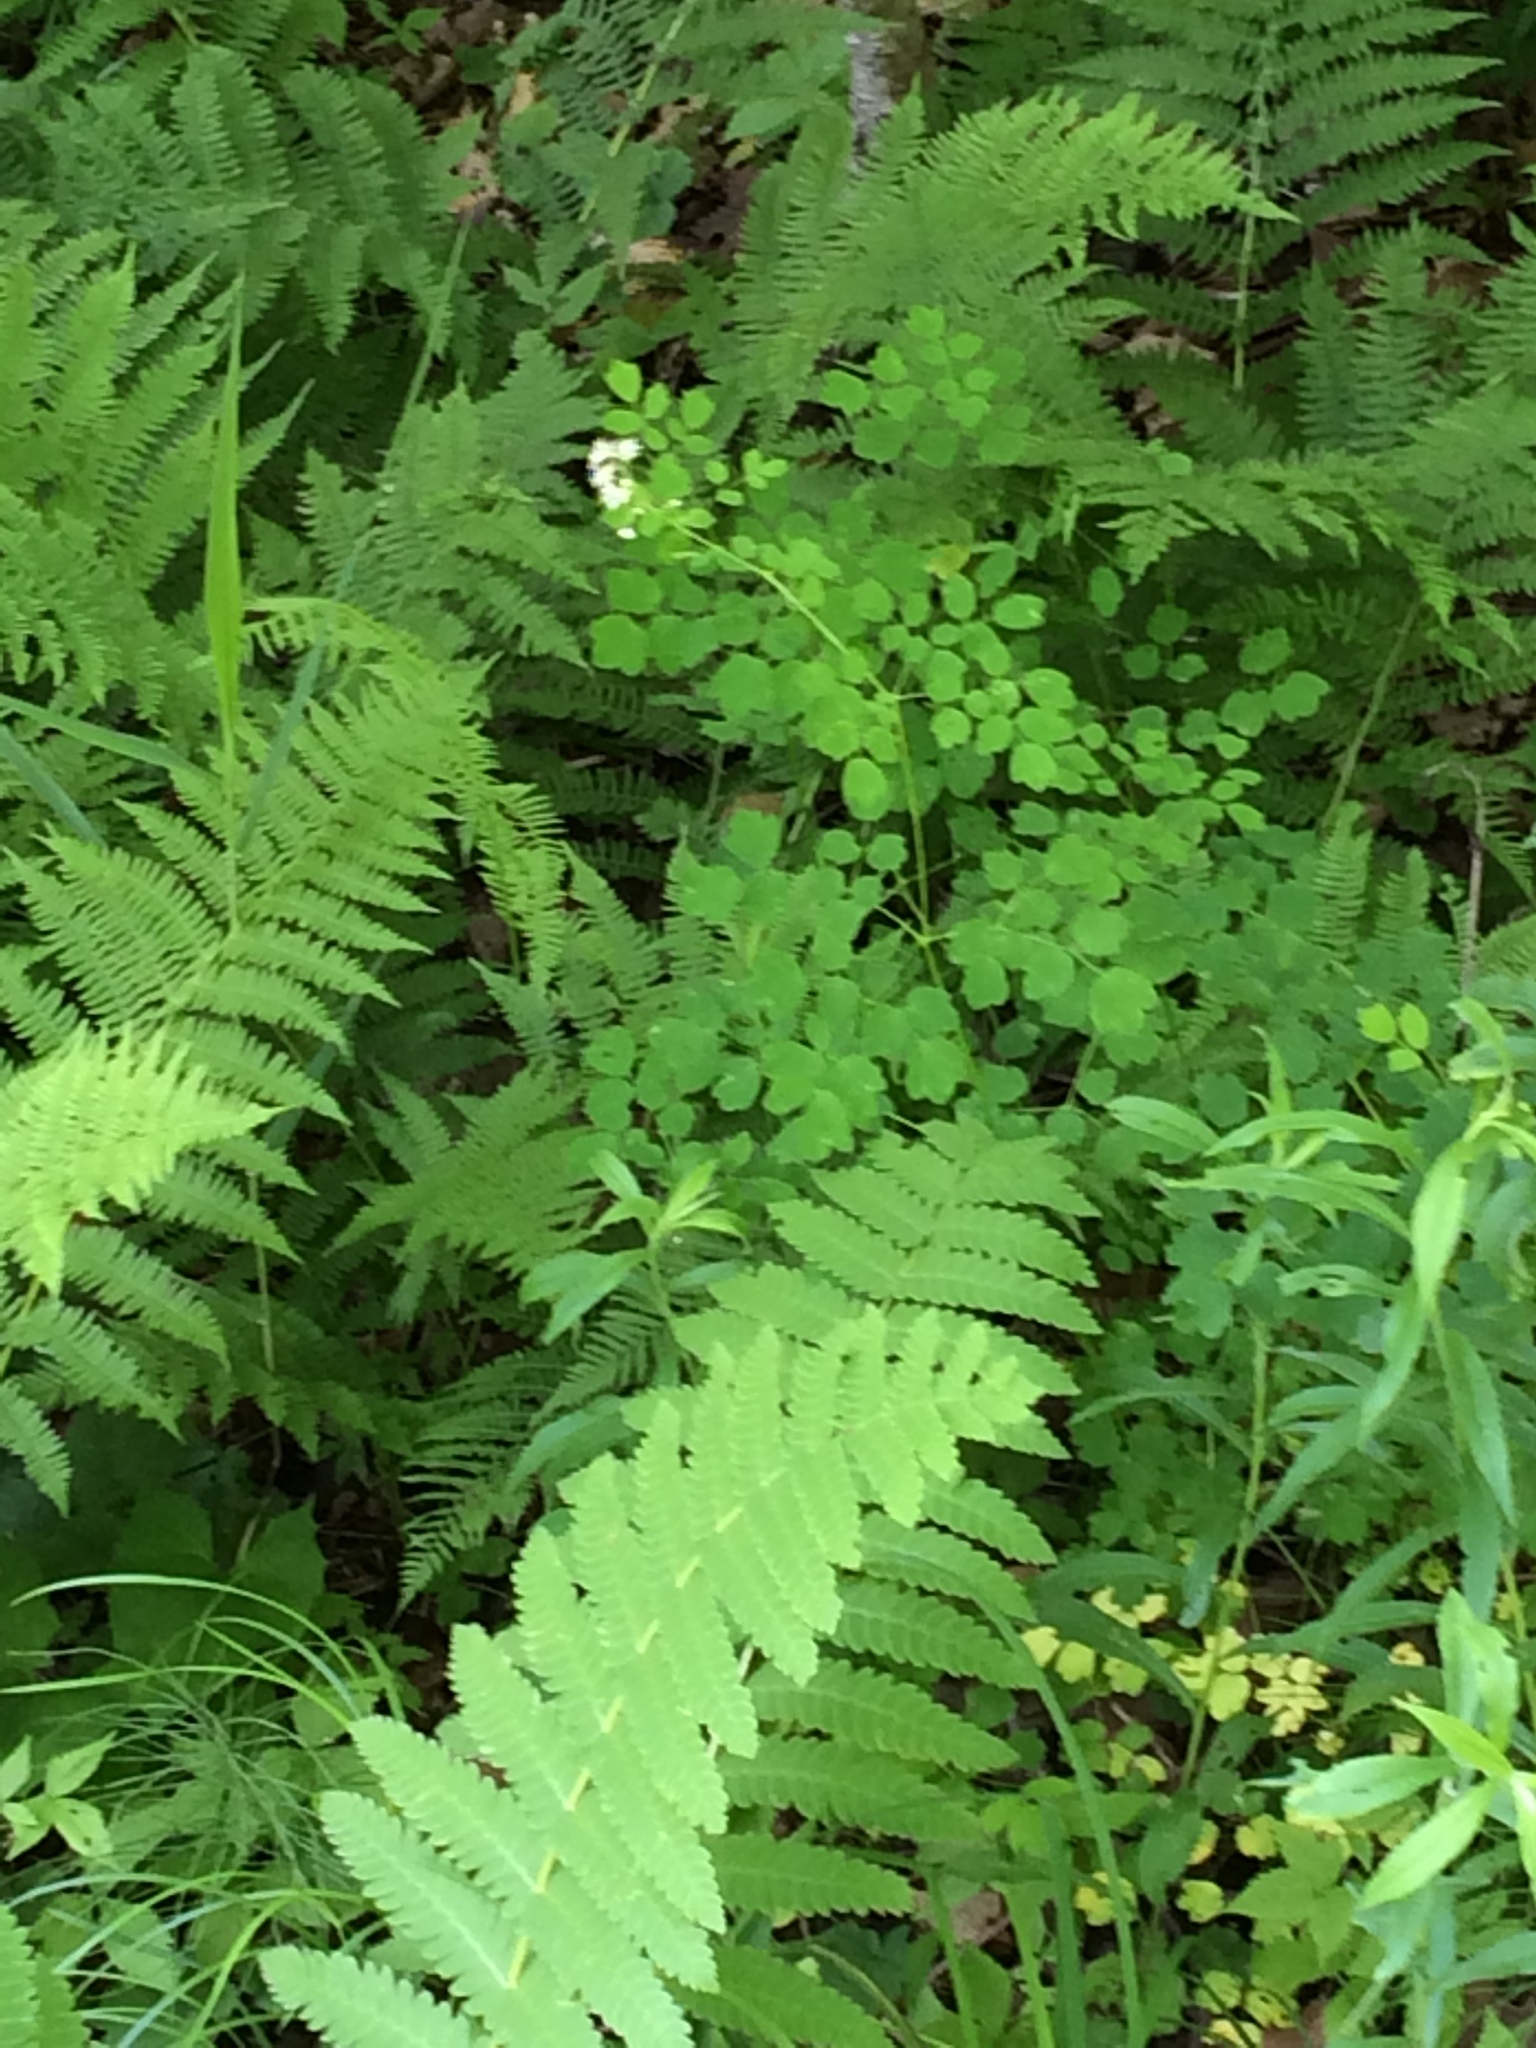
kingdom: Plantae
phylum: Tracheophyta
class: Magnoliopsida
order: Ranunculales
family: Ranunculaceae
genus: Thalictrum
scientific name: Thalictrum pubescens
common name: King-of-the-meadow
